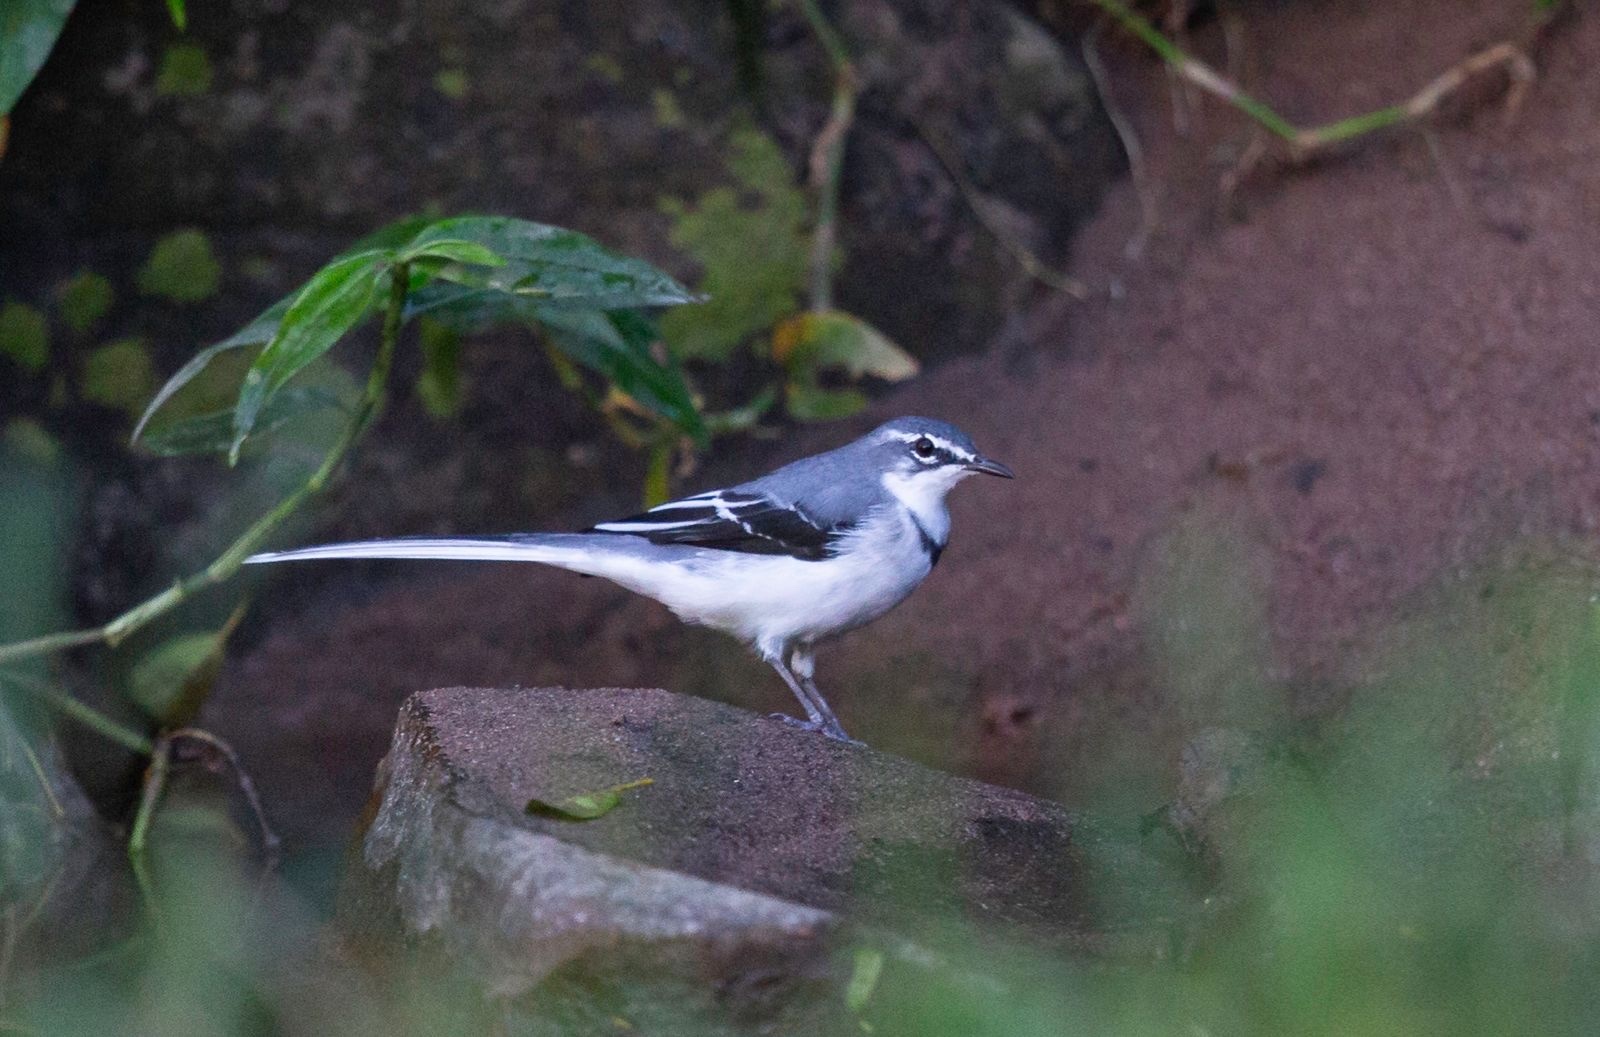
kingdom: Animalia
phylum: Chordata
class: Aves
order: Passeriformes
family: Motacillidae
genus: Motacilla
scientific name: Motacilla clara
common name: Mountain wagtail
